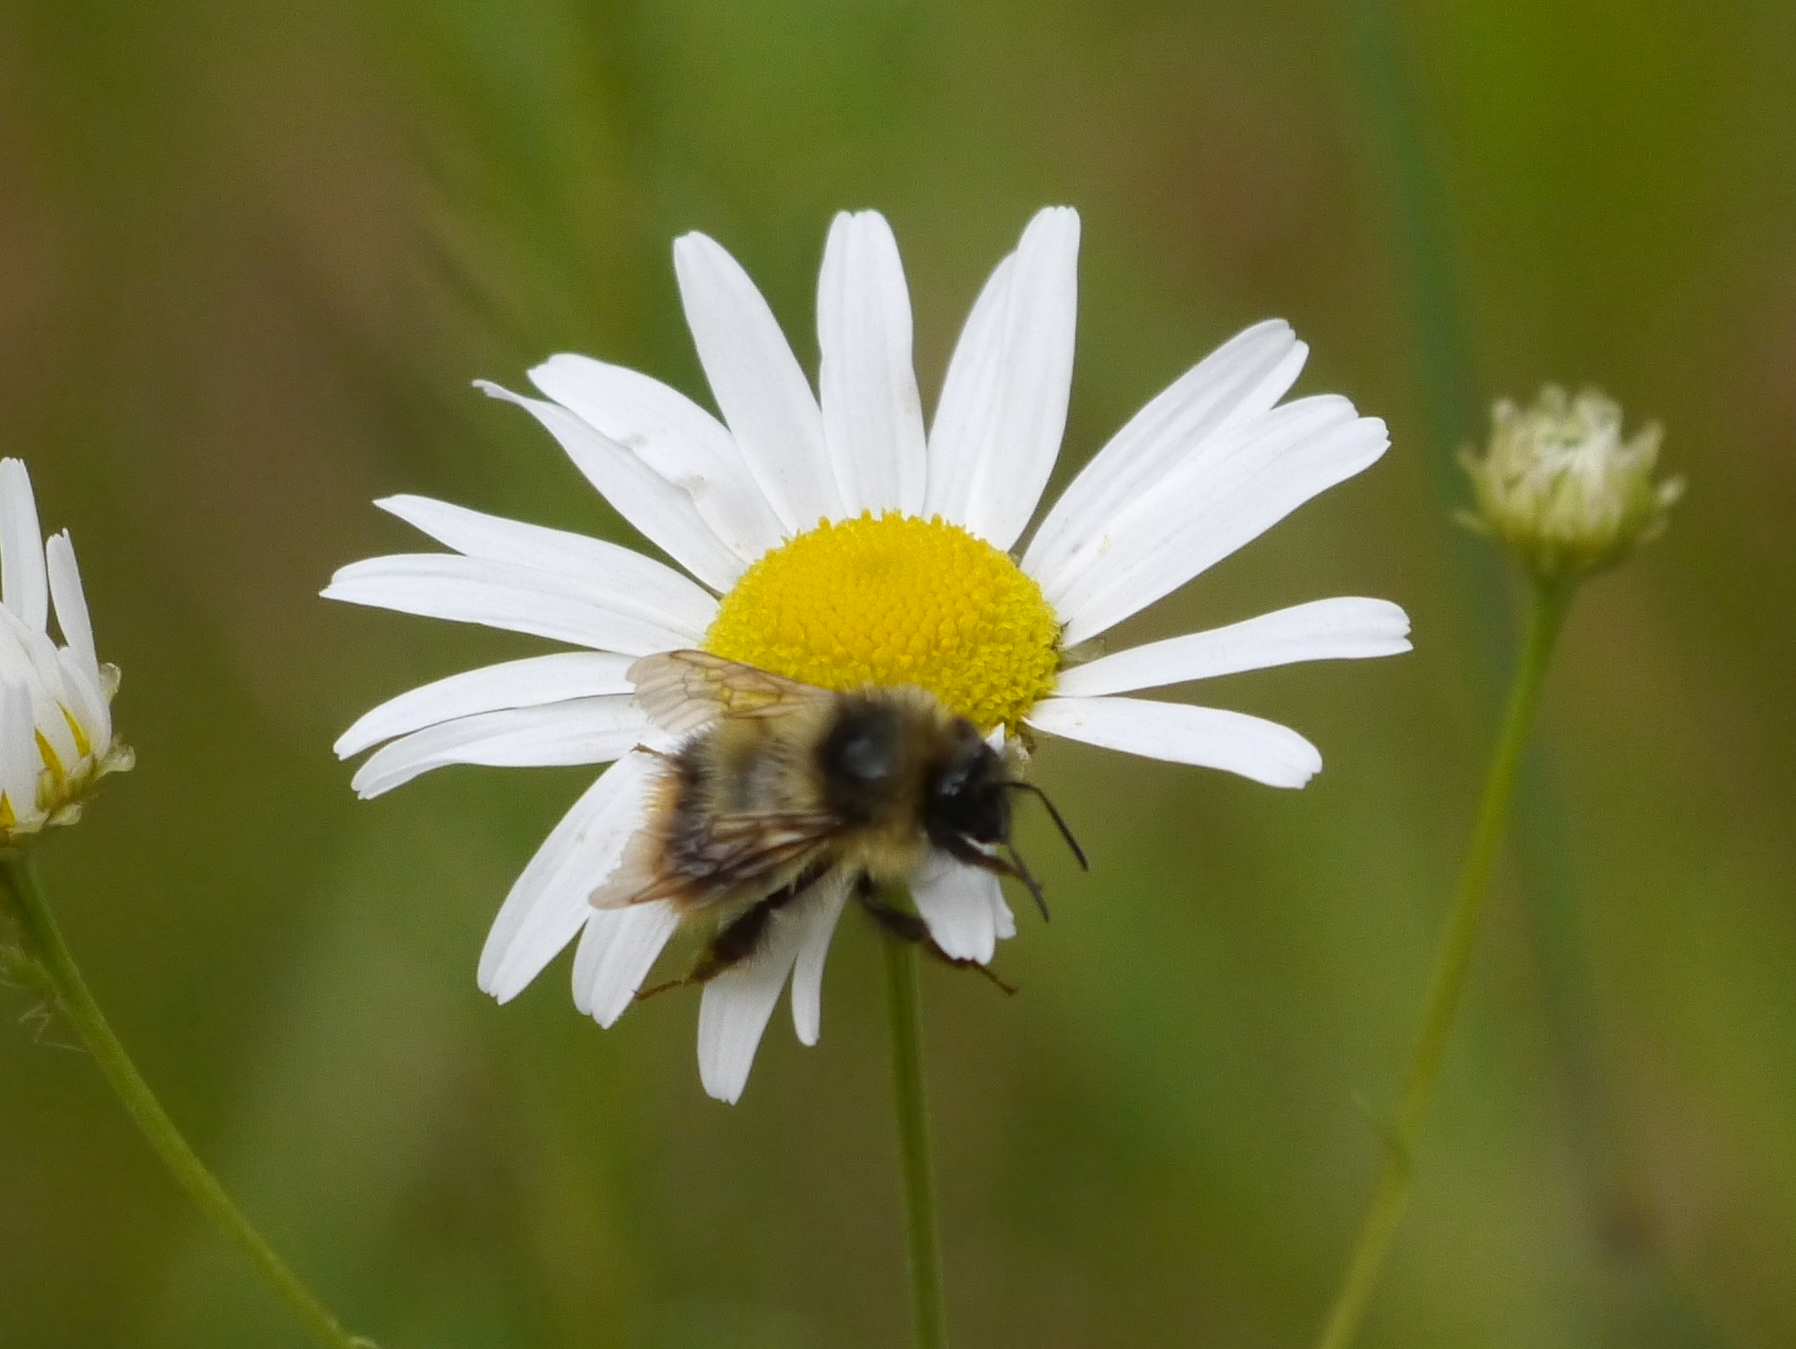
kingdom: Animalia
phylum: Arthropoda
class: Insecta
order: Hymenoptera
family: Apidae
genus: Bombus
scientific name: Bombus mixtus
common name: Fuzzy-horned bumble bee
